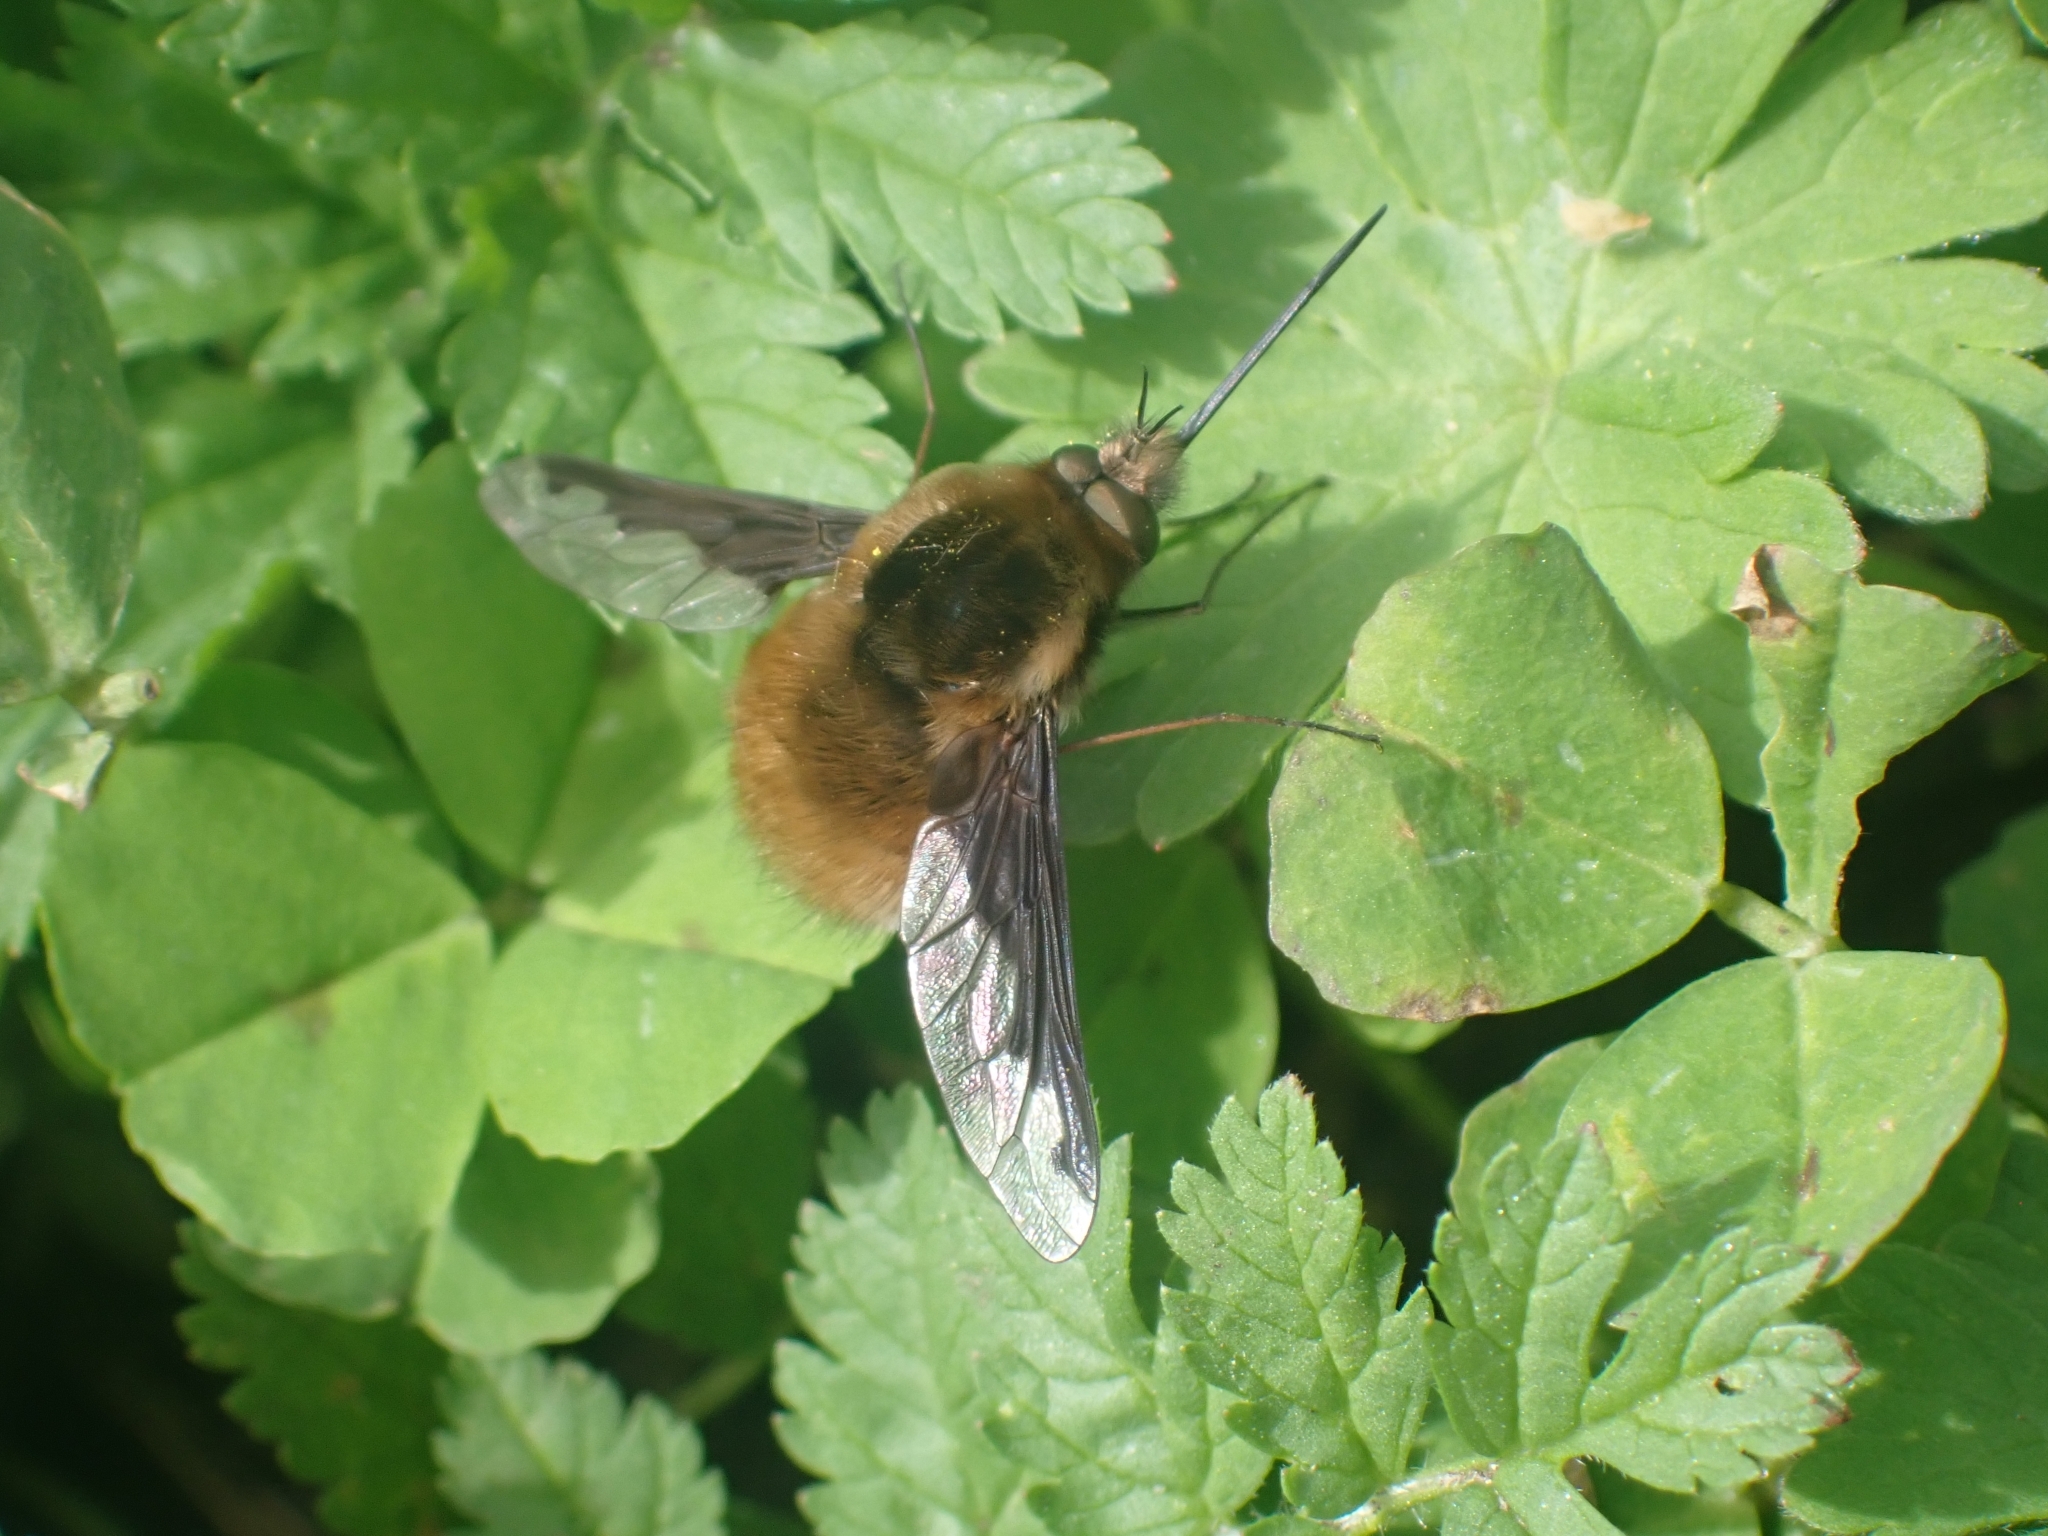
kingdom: Animalia
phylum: Arthropoda
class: Insecta
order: Diptera
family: Bombyliidae
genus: Bombylius
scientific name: Bombylius major
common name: Bee fly
